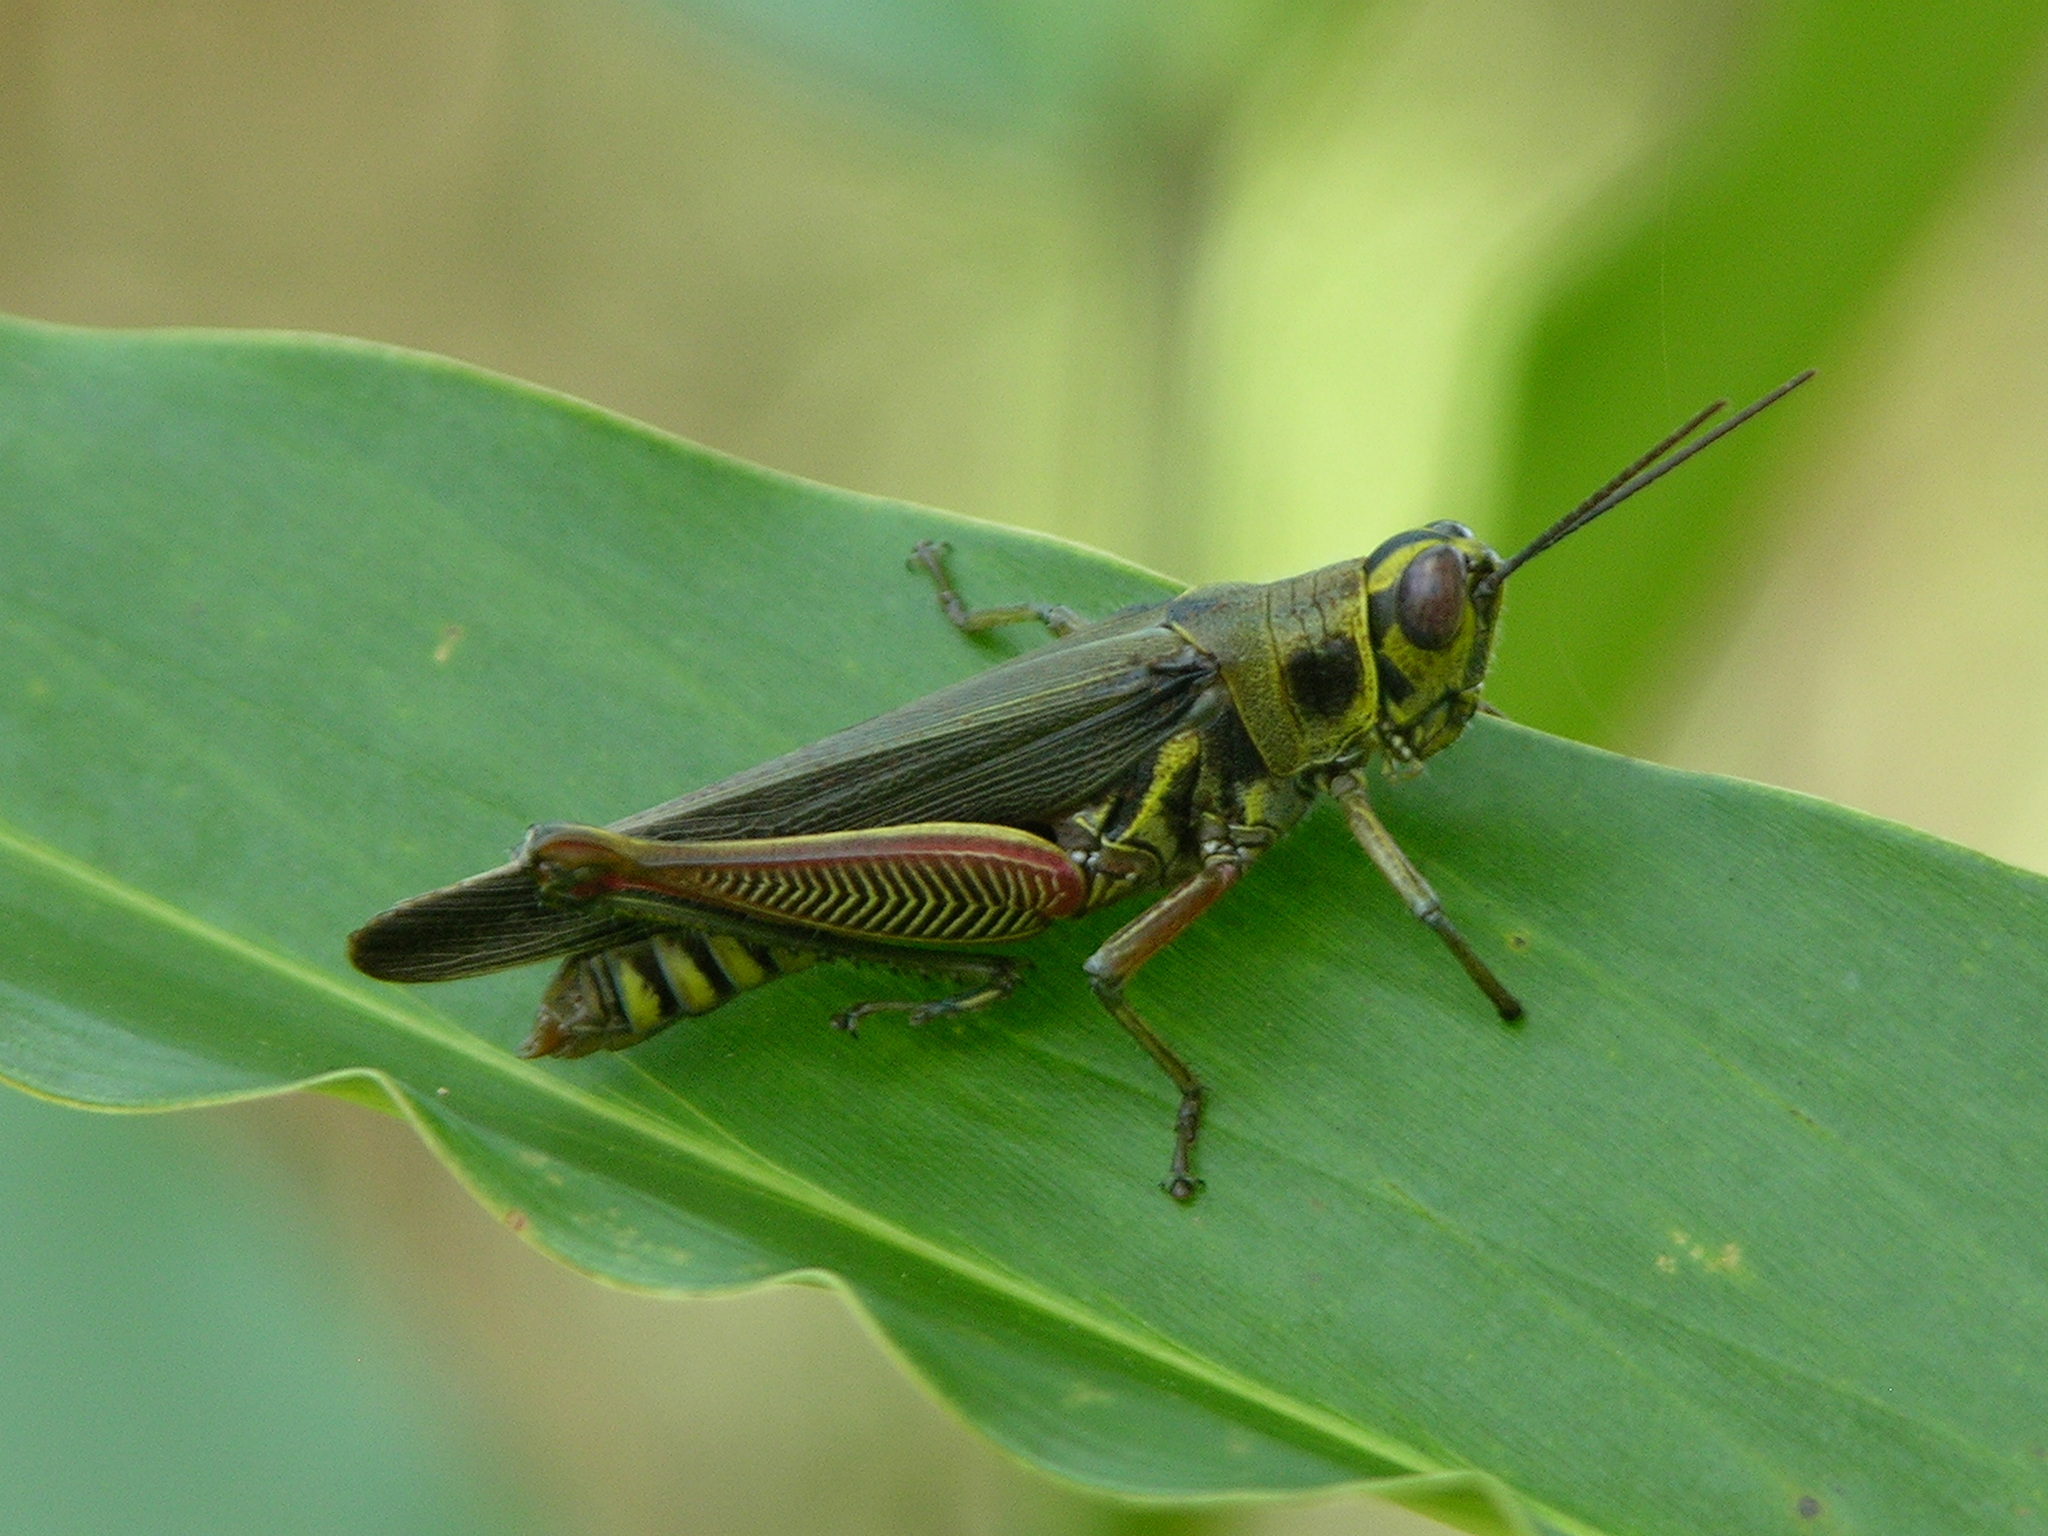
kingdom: Animalia
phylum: Arthropoda
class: Insecta
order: Orthoptera
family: Acrididae
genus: Anapropacris
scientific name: Anapropacris elegantula
